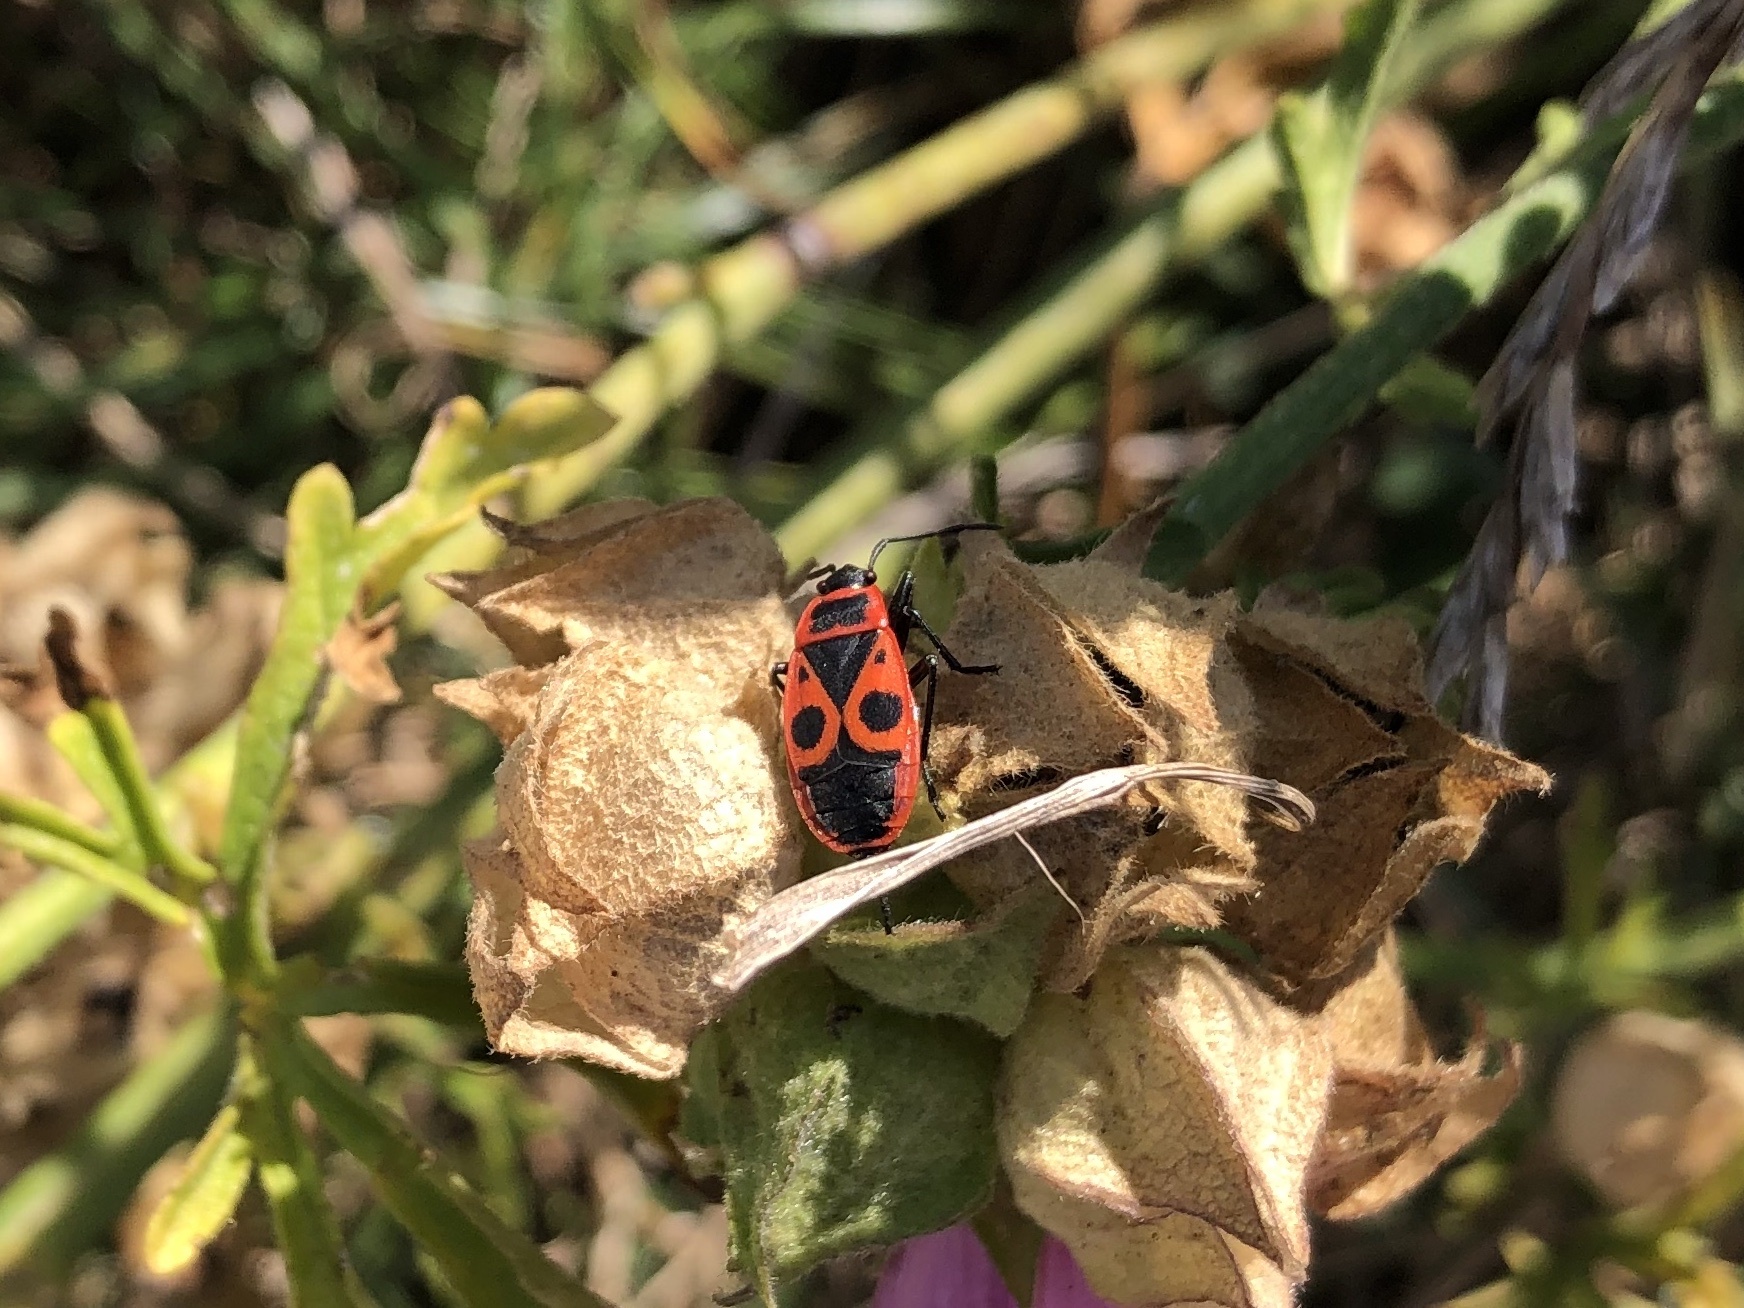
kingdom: Animalia
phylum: Arthropoda
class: Insecta
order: Hemiptera
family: Pyrrhocoridae
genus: Pyrrhocoris
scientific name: Pyrrhocoris apterus
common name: Firebug
